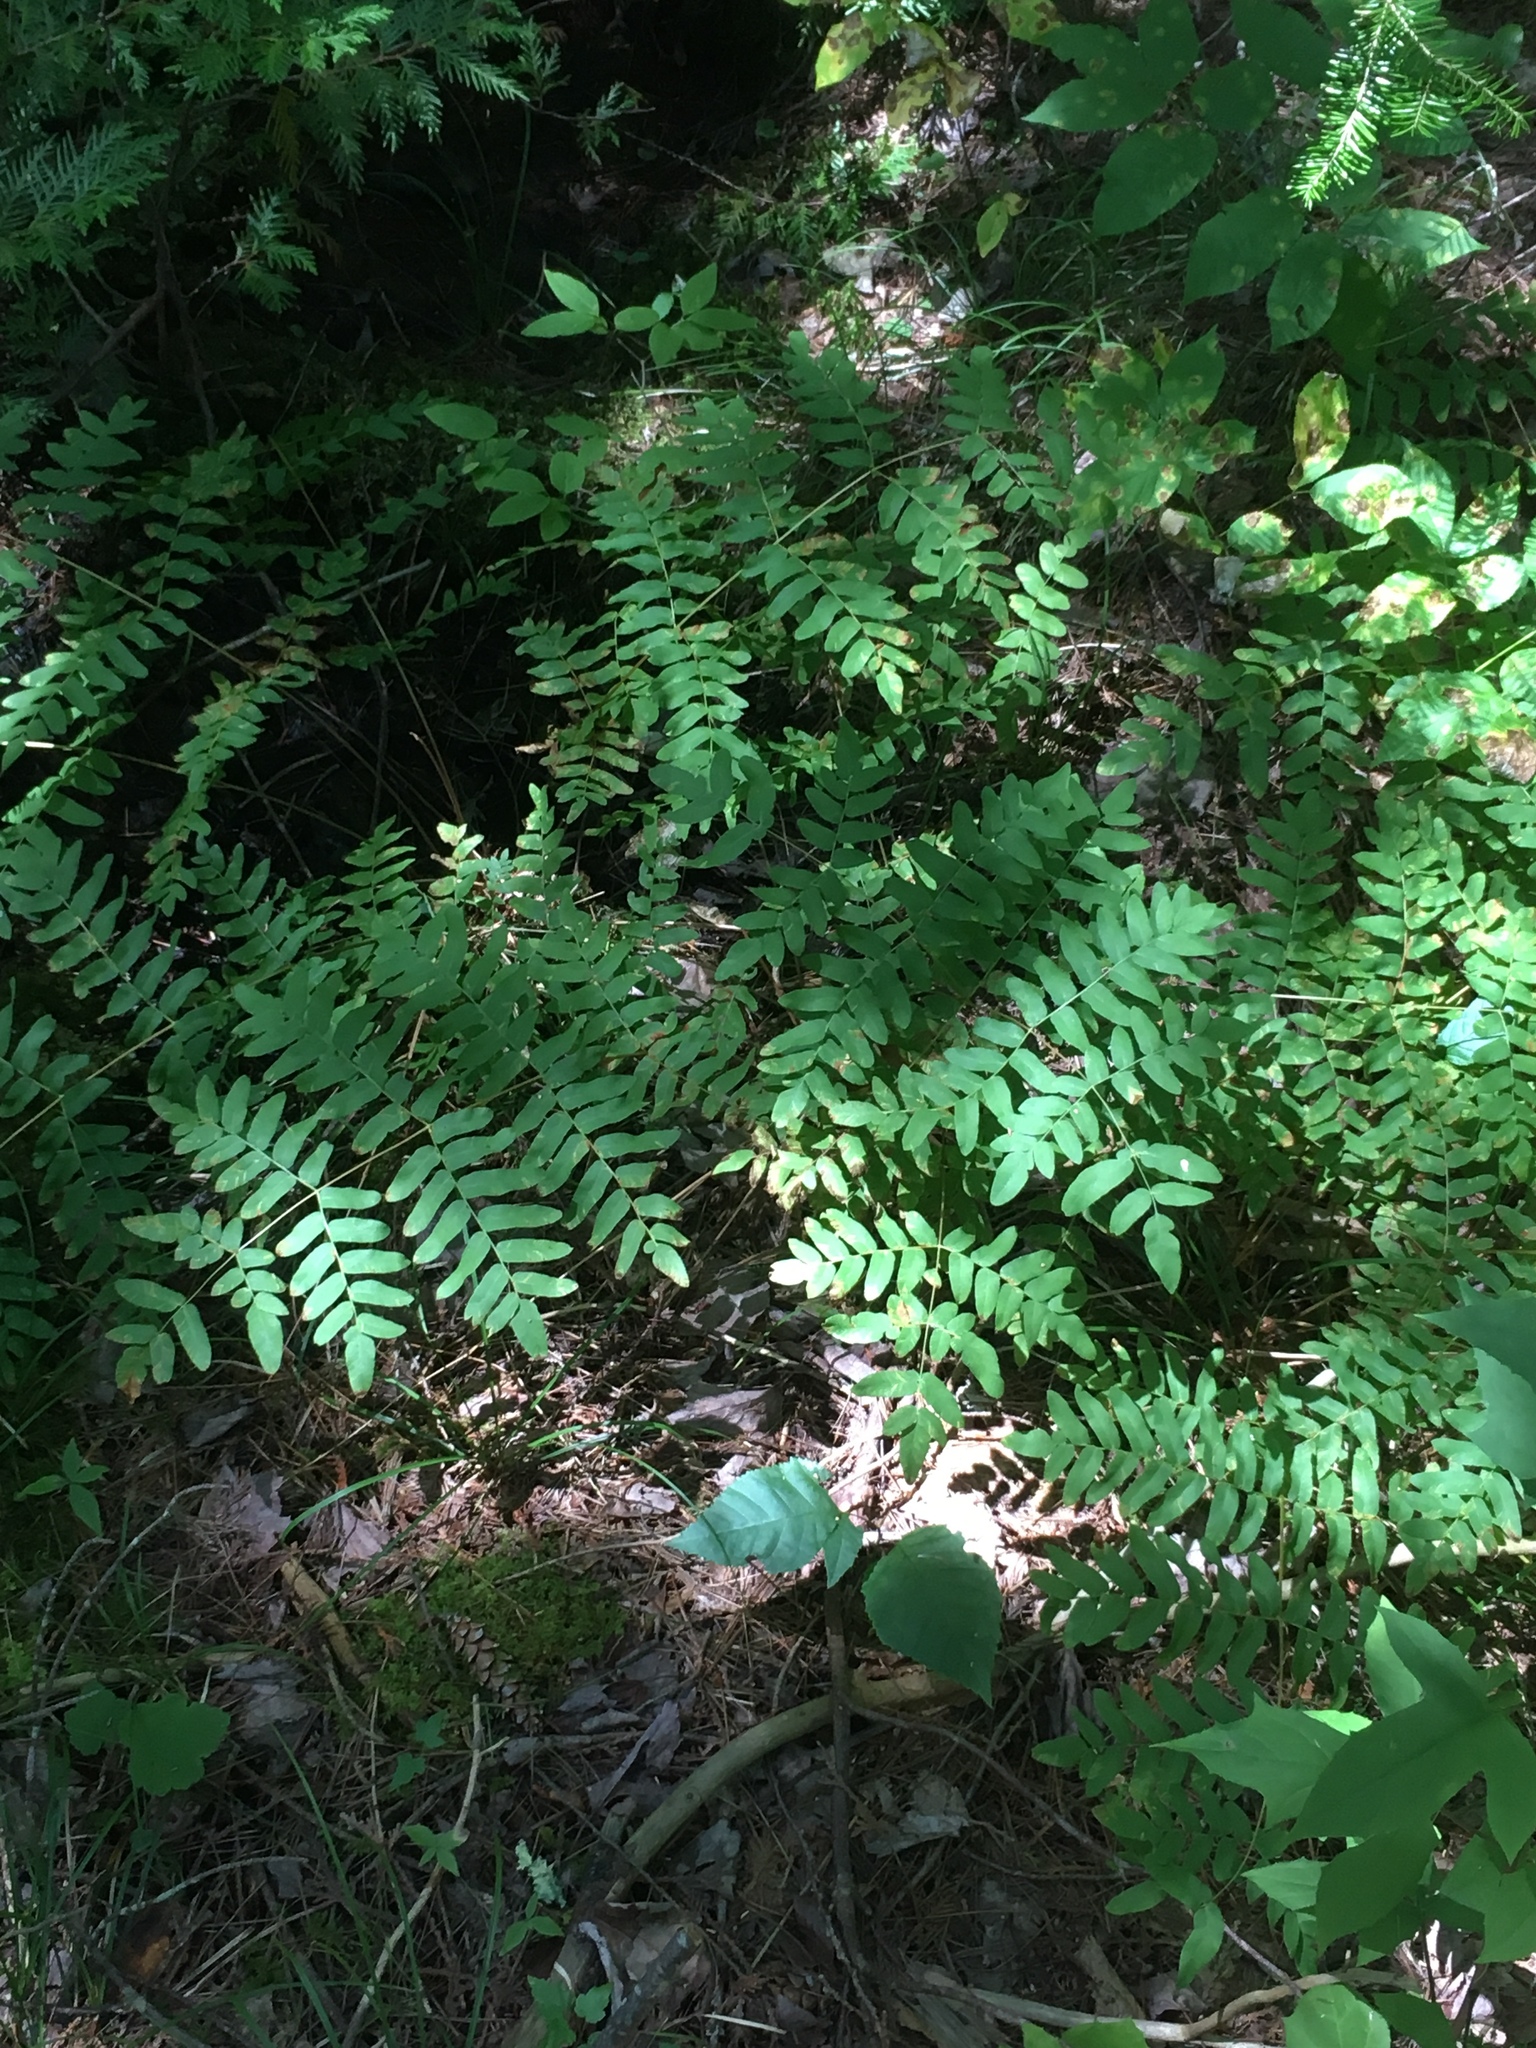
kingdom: Plantae
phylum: Tracheophyta
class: Polypodiopsida
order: Osmundales
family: Osmundaceae
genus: Osmunda
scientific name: Osmunda spectabilis
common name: American royal fern
